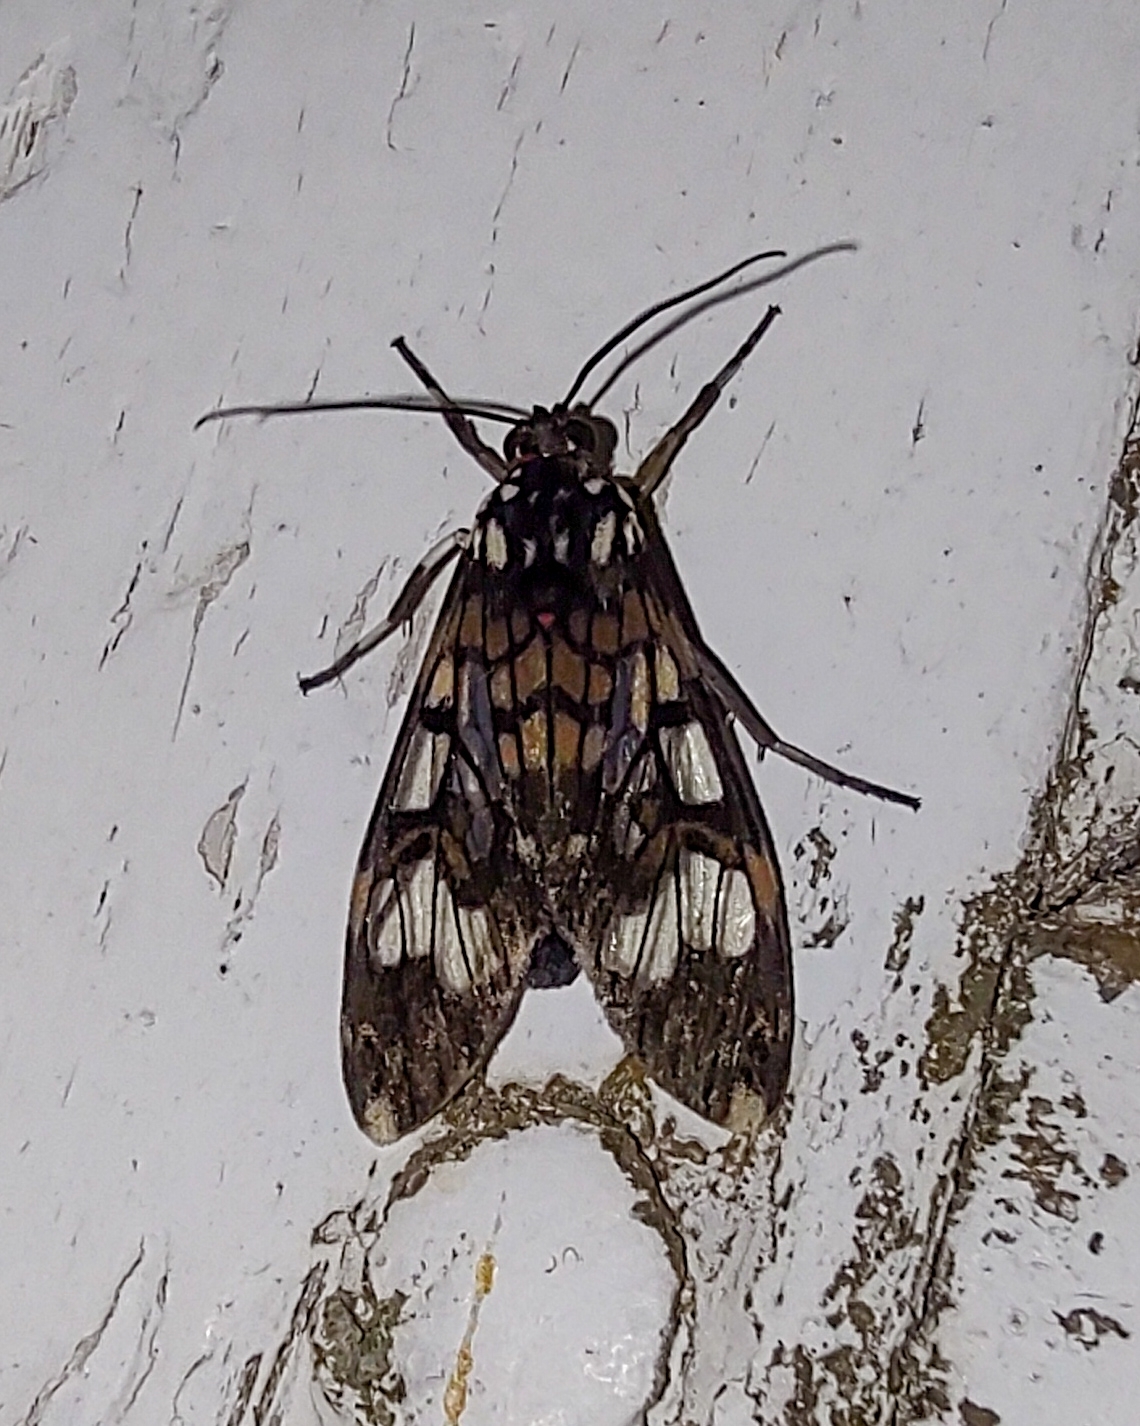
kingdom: Animalia
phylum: Arthropoda
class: Insecta
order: Lepidoptera
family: Erebidae
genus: Hyaleucerea
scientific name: Hyaleucerea vulnerata
